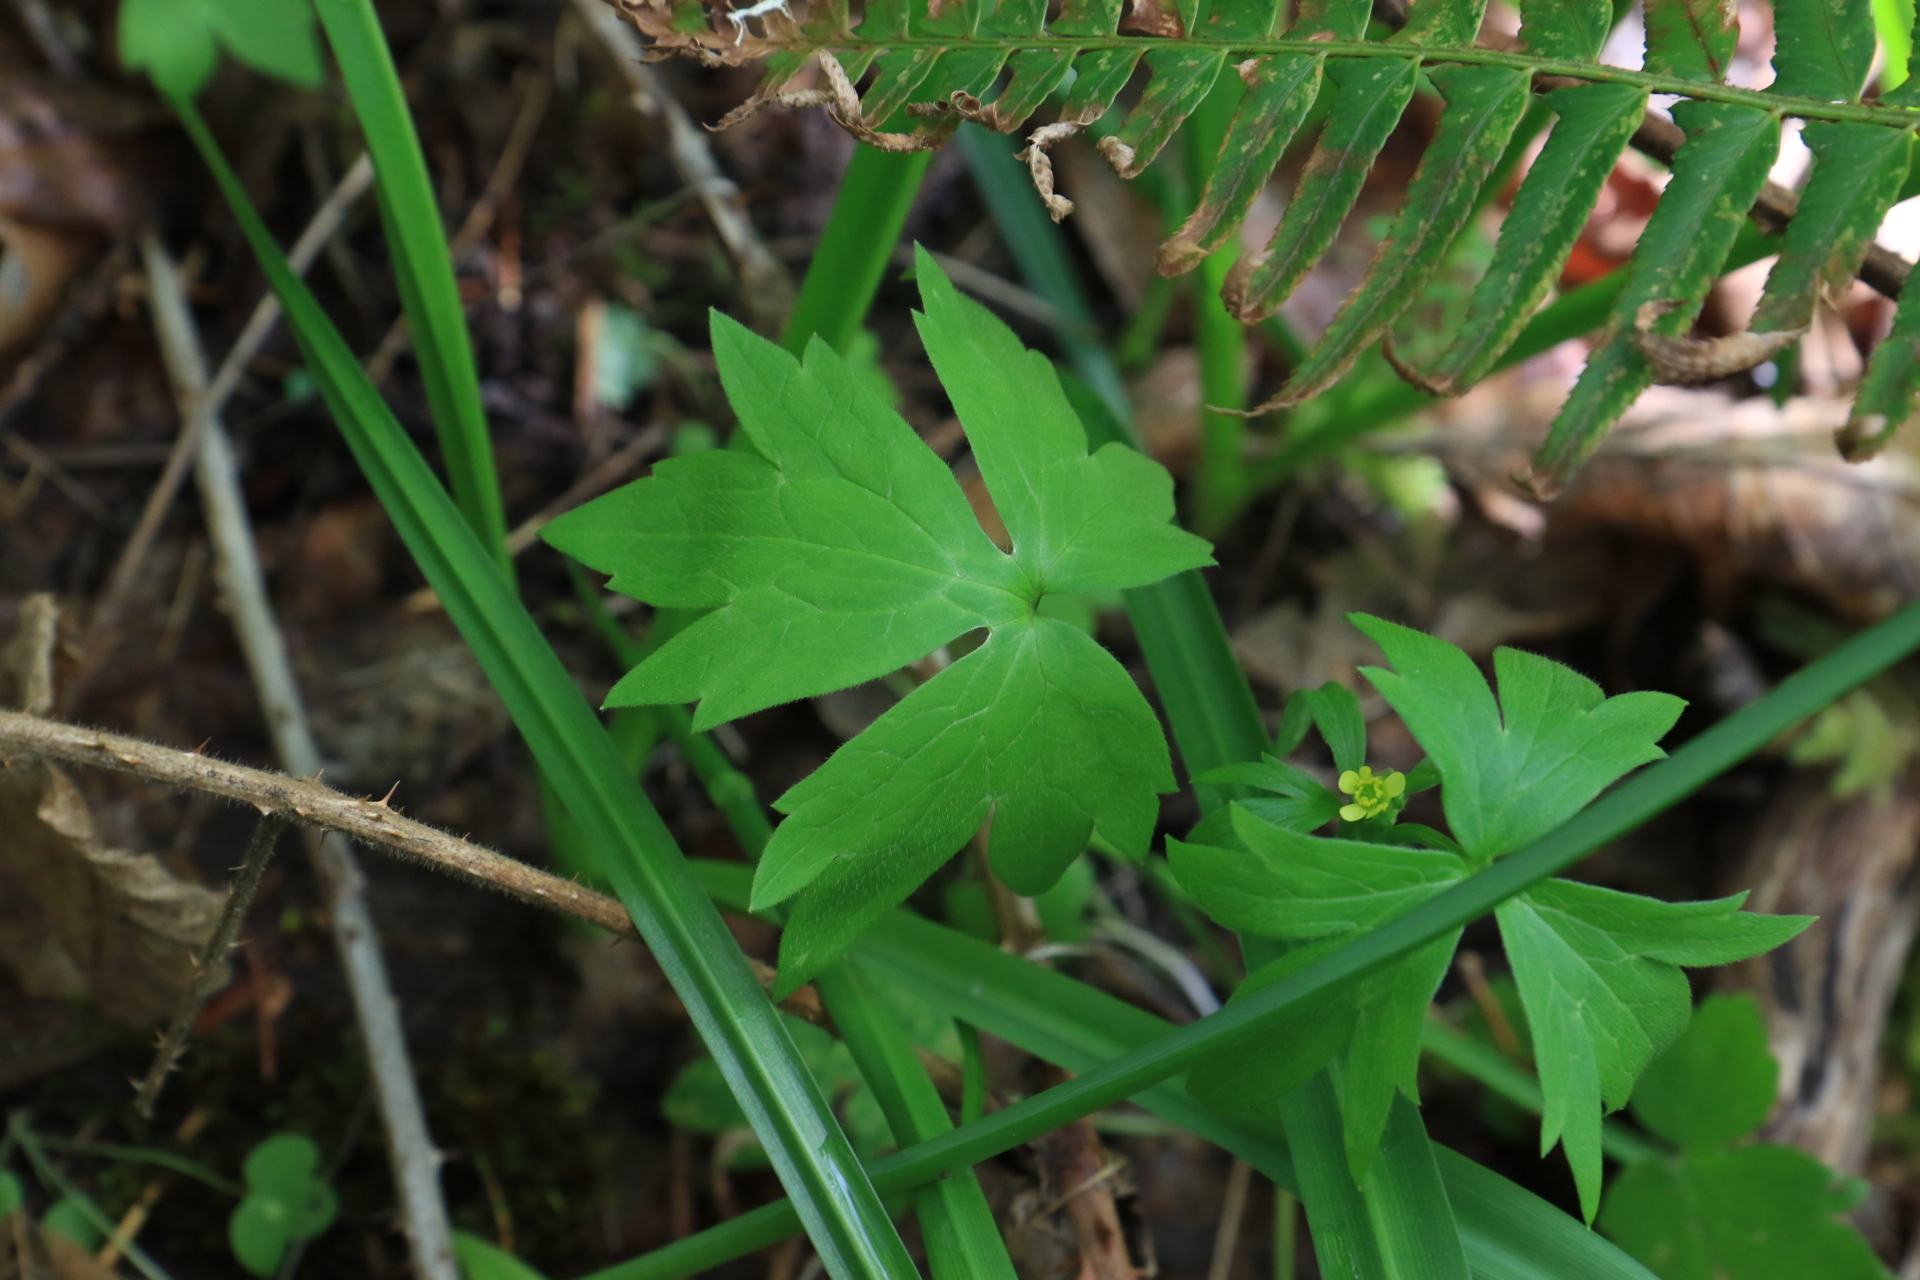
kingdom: Plantae
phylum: Tracheophyta
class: Magnoliopsida
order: Ranunculales
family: Ranunculaceae
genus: Ranunculus
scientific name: Ranunculus uncinatus
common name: Little buttercup
